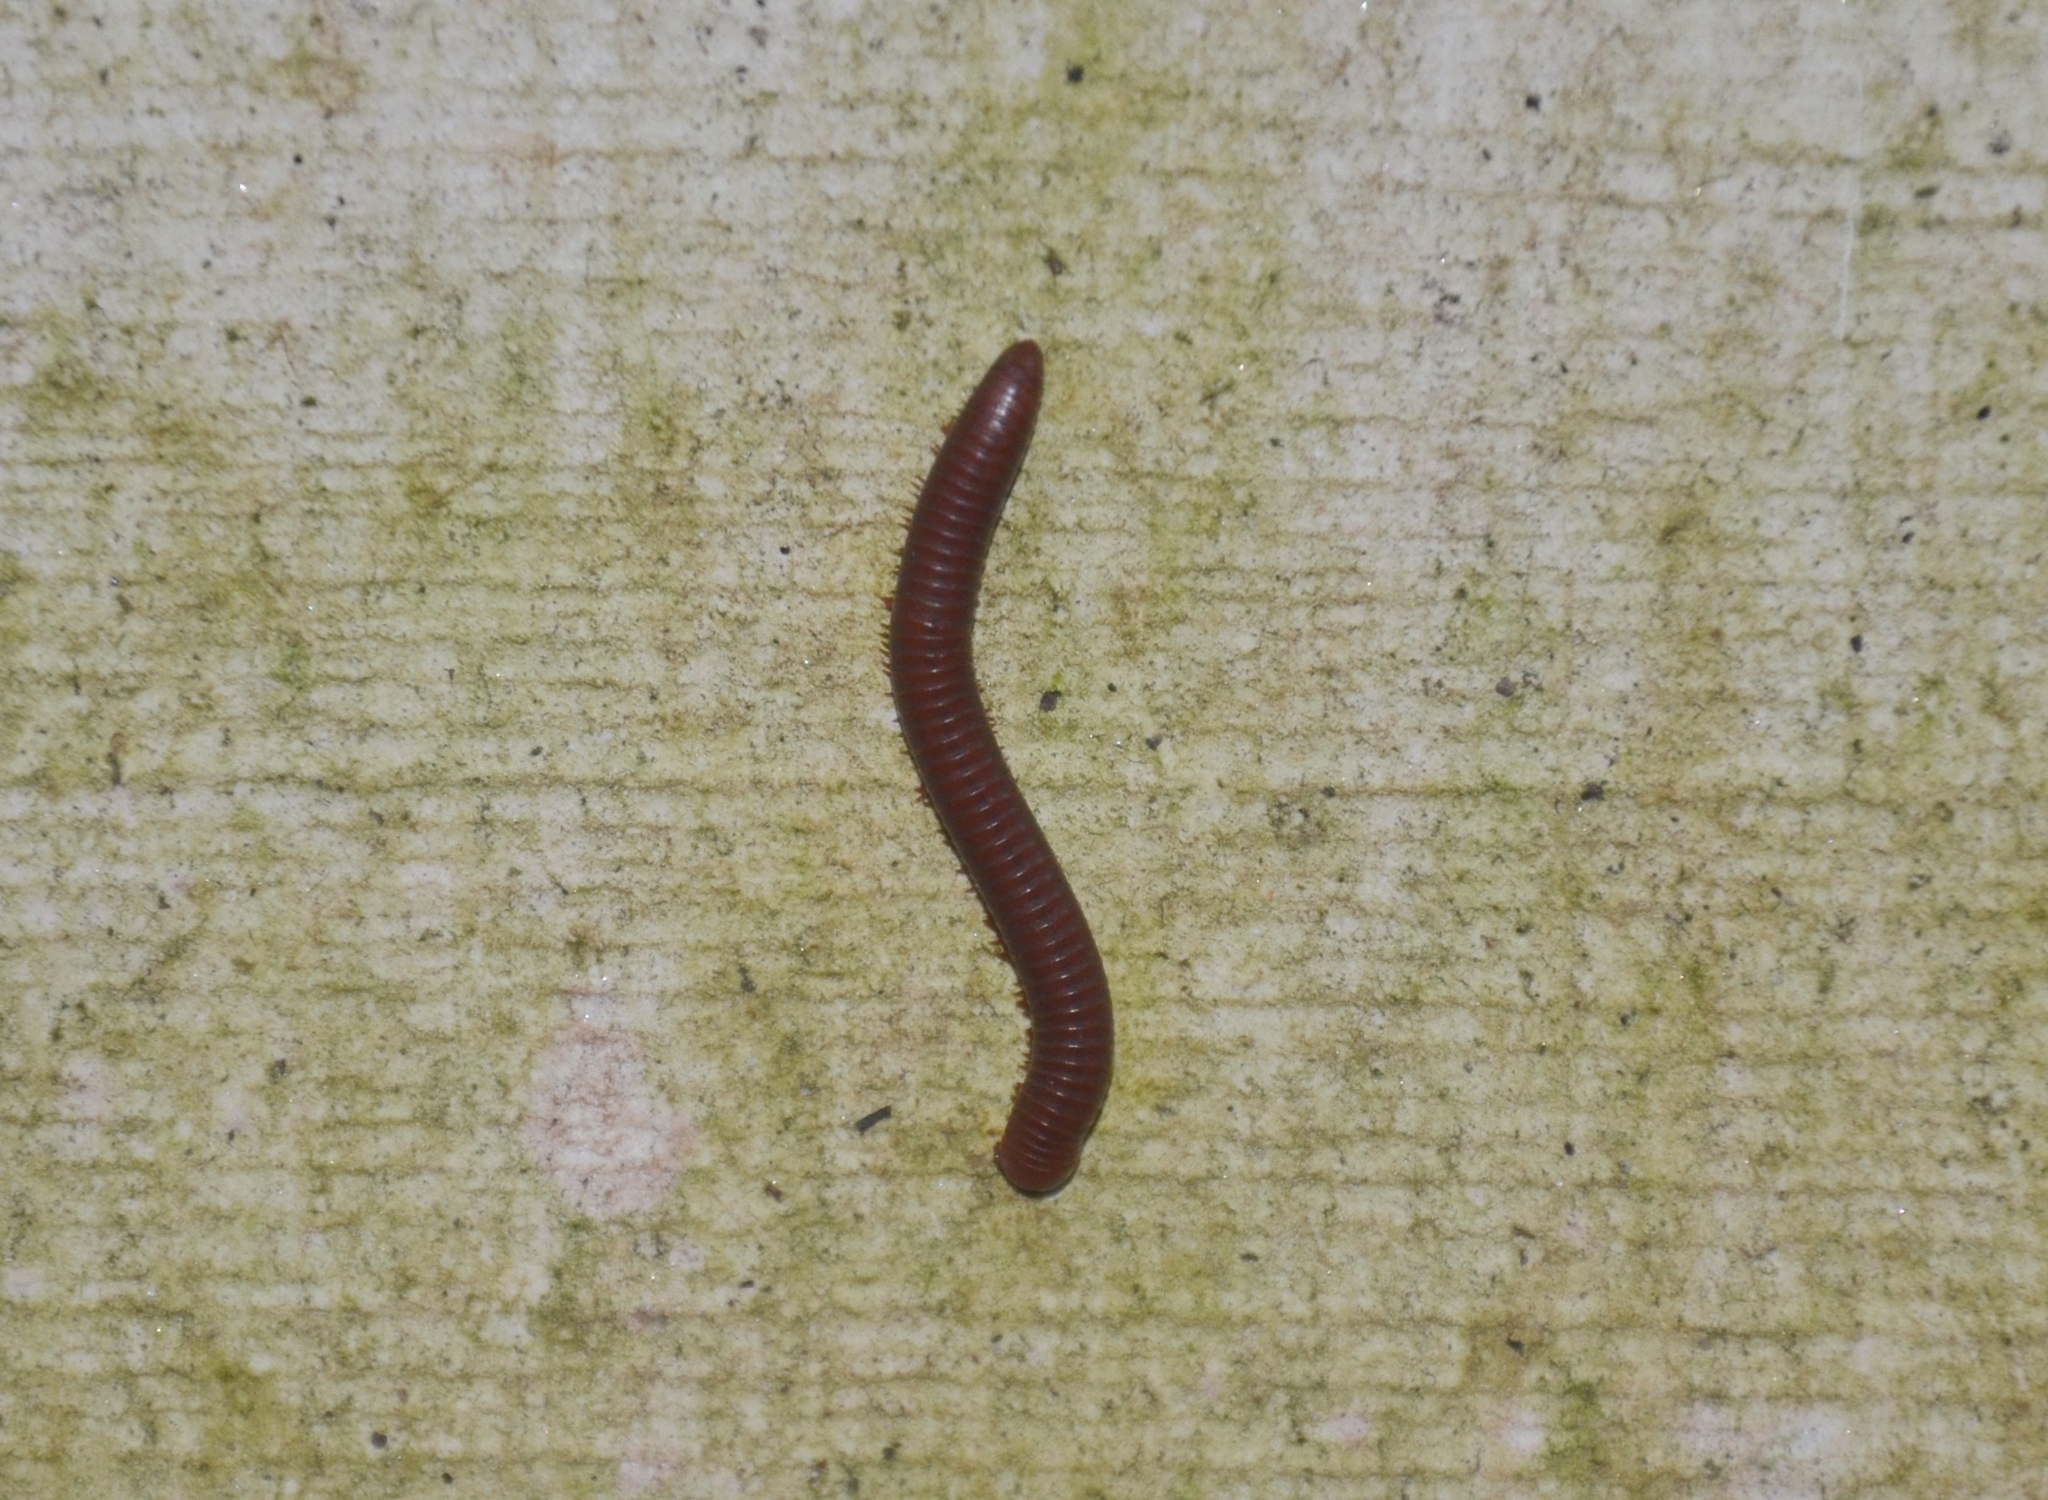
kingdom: Animalia
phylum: Arthropoda
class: Diplopoda
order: Spirobolida
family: Pachybolidae
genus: Trigoniulus
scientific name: Trigoniulus corallinus
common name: Millipede
